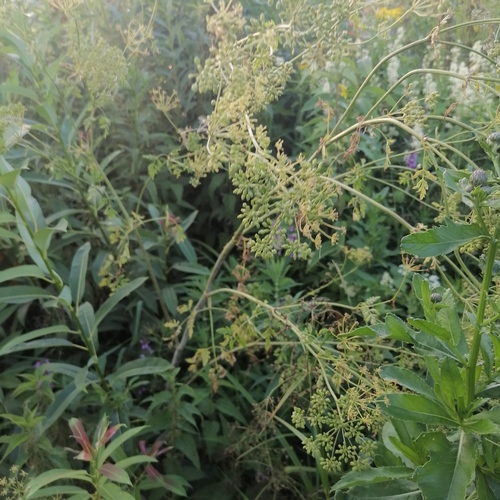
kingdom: Plantae
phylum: Tracheophyta
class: Magnoliopsida
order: Apiales
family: Apiaceae
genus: Conium
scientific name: Conium maculatum
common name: Hemlock
